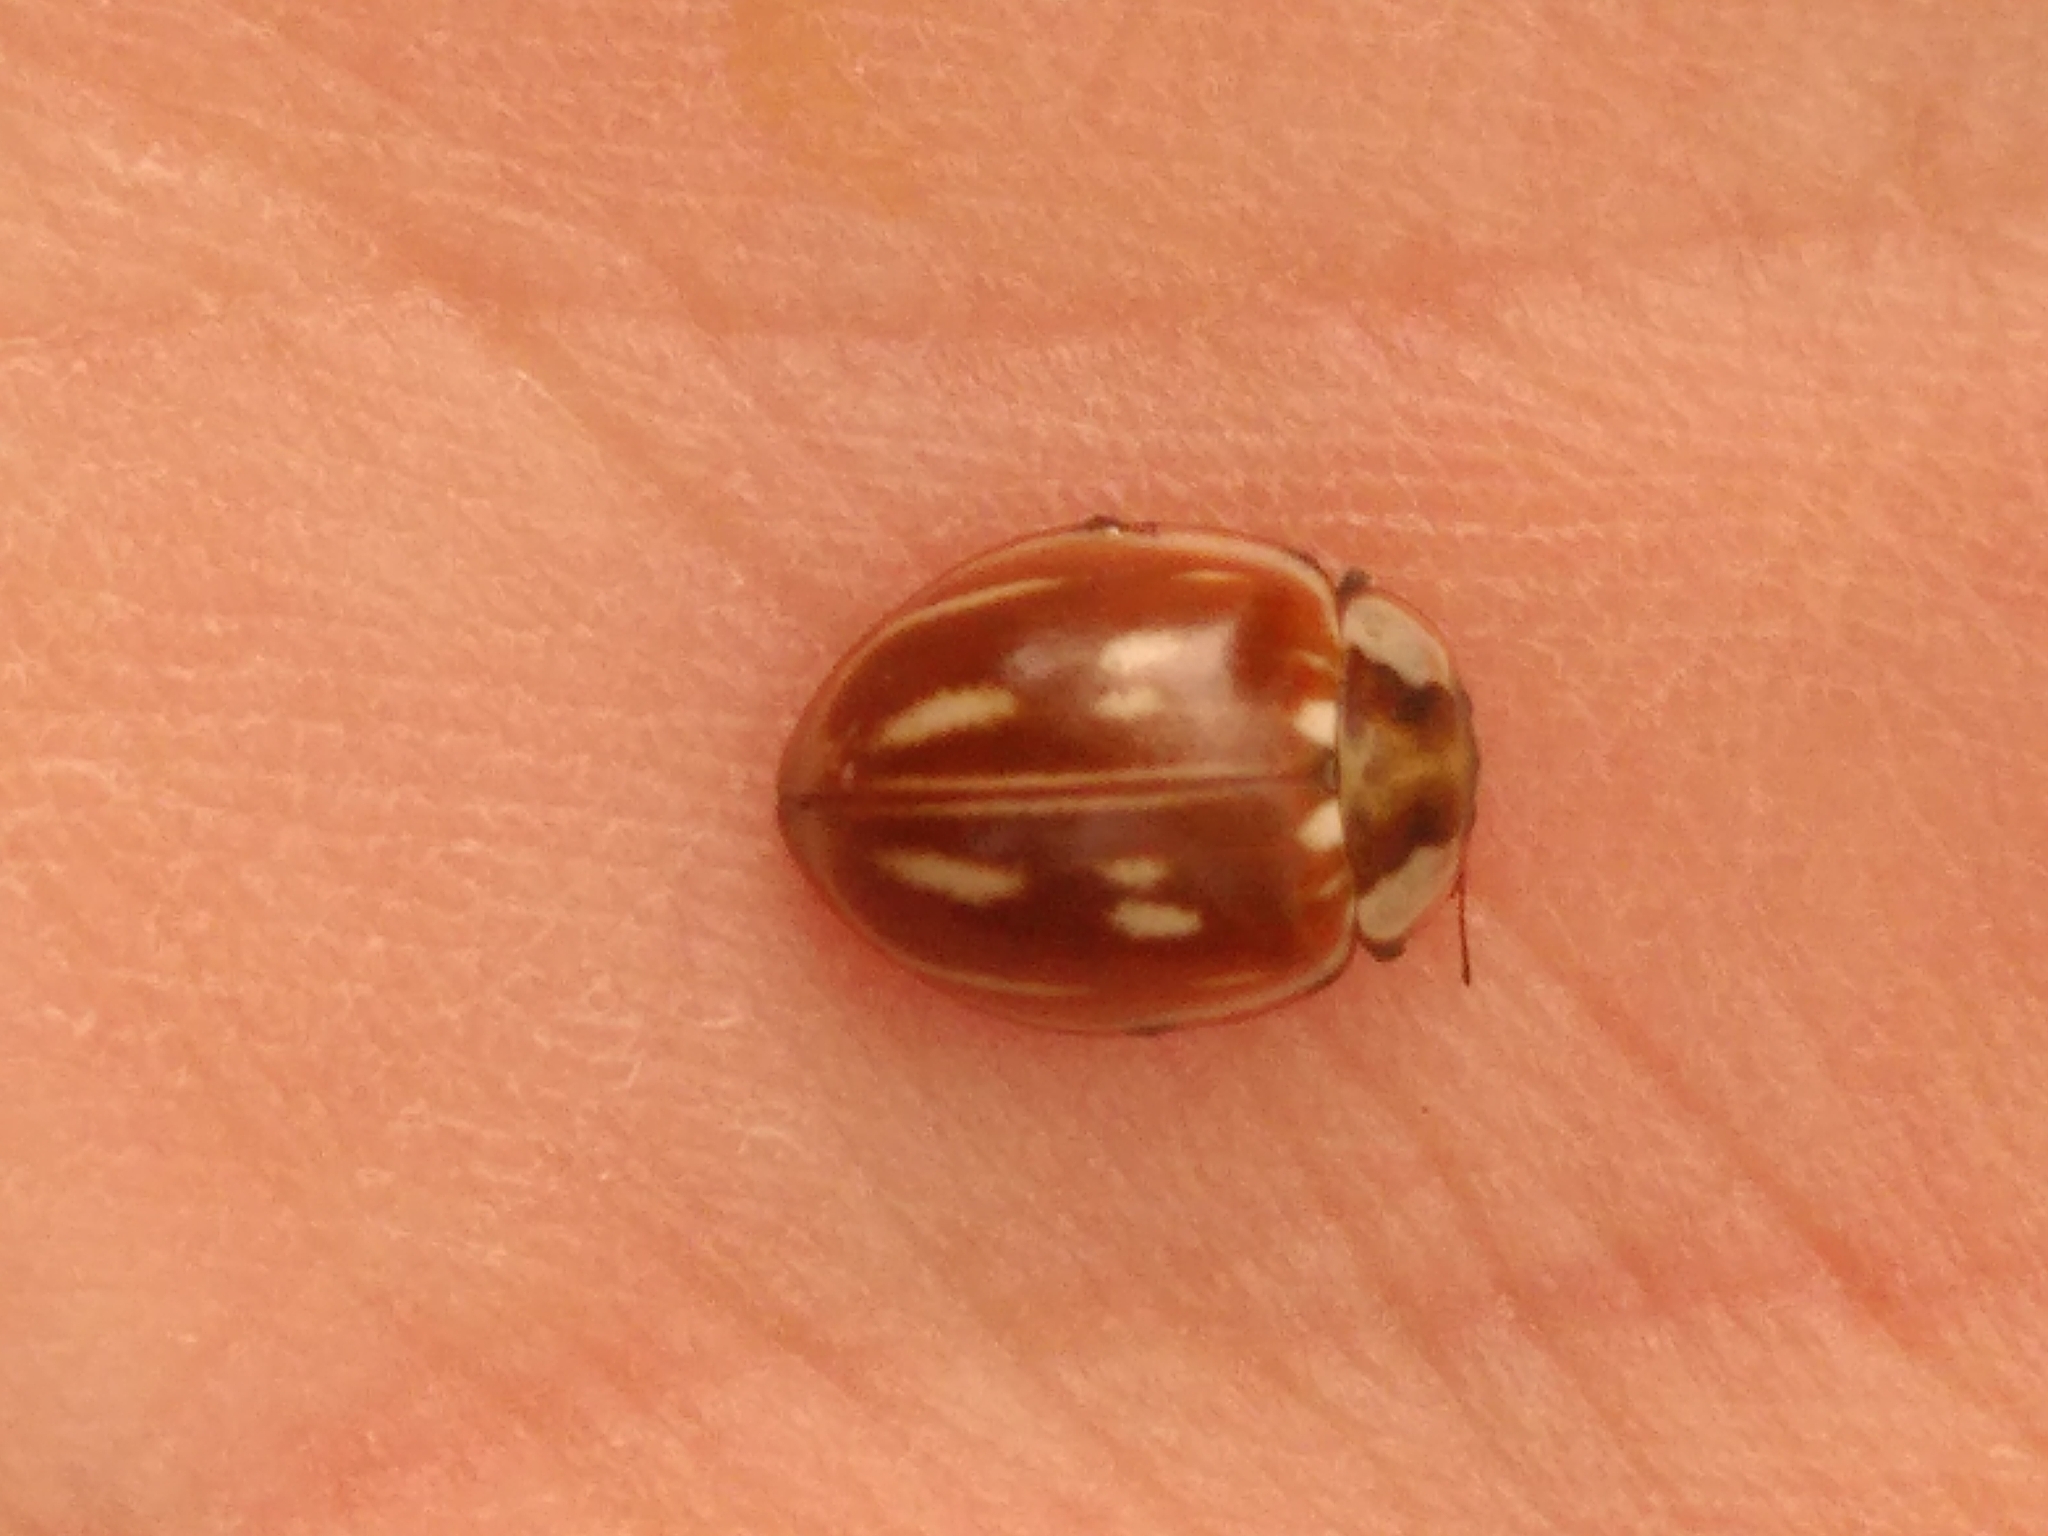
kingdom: Animalia
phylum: Arthropoda
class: Insecta
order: Coleoptera
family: Coccinellidae
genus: Myzia
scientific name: Myzia oblongoguttata
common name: Striped ladybird
